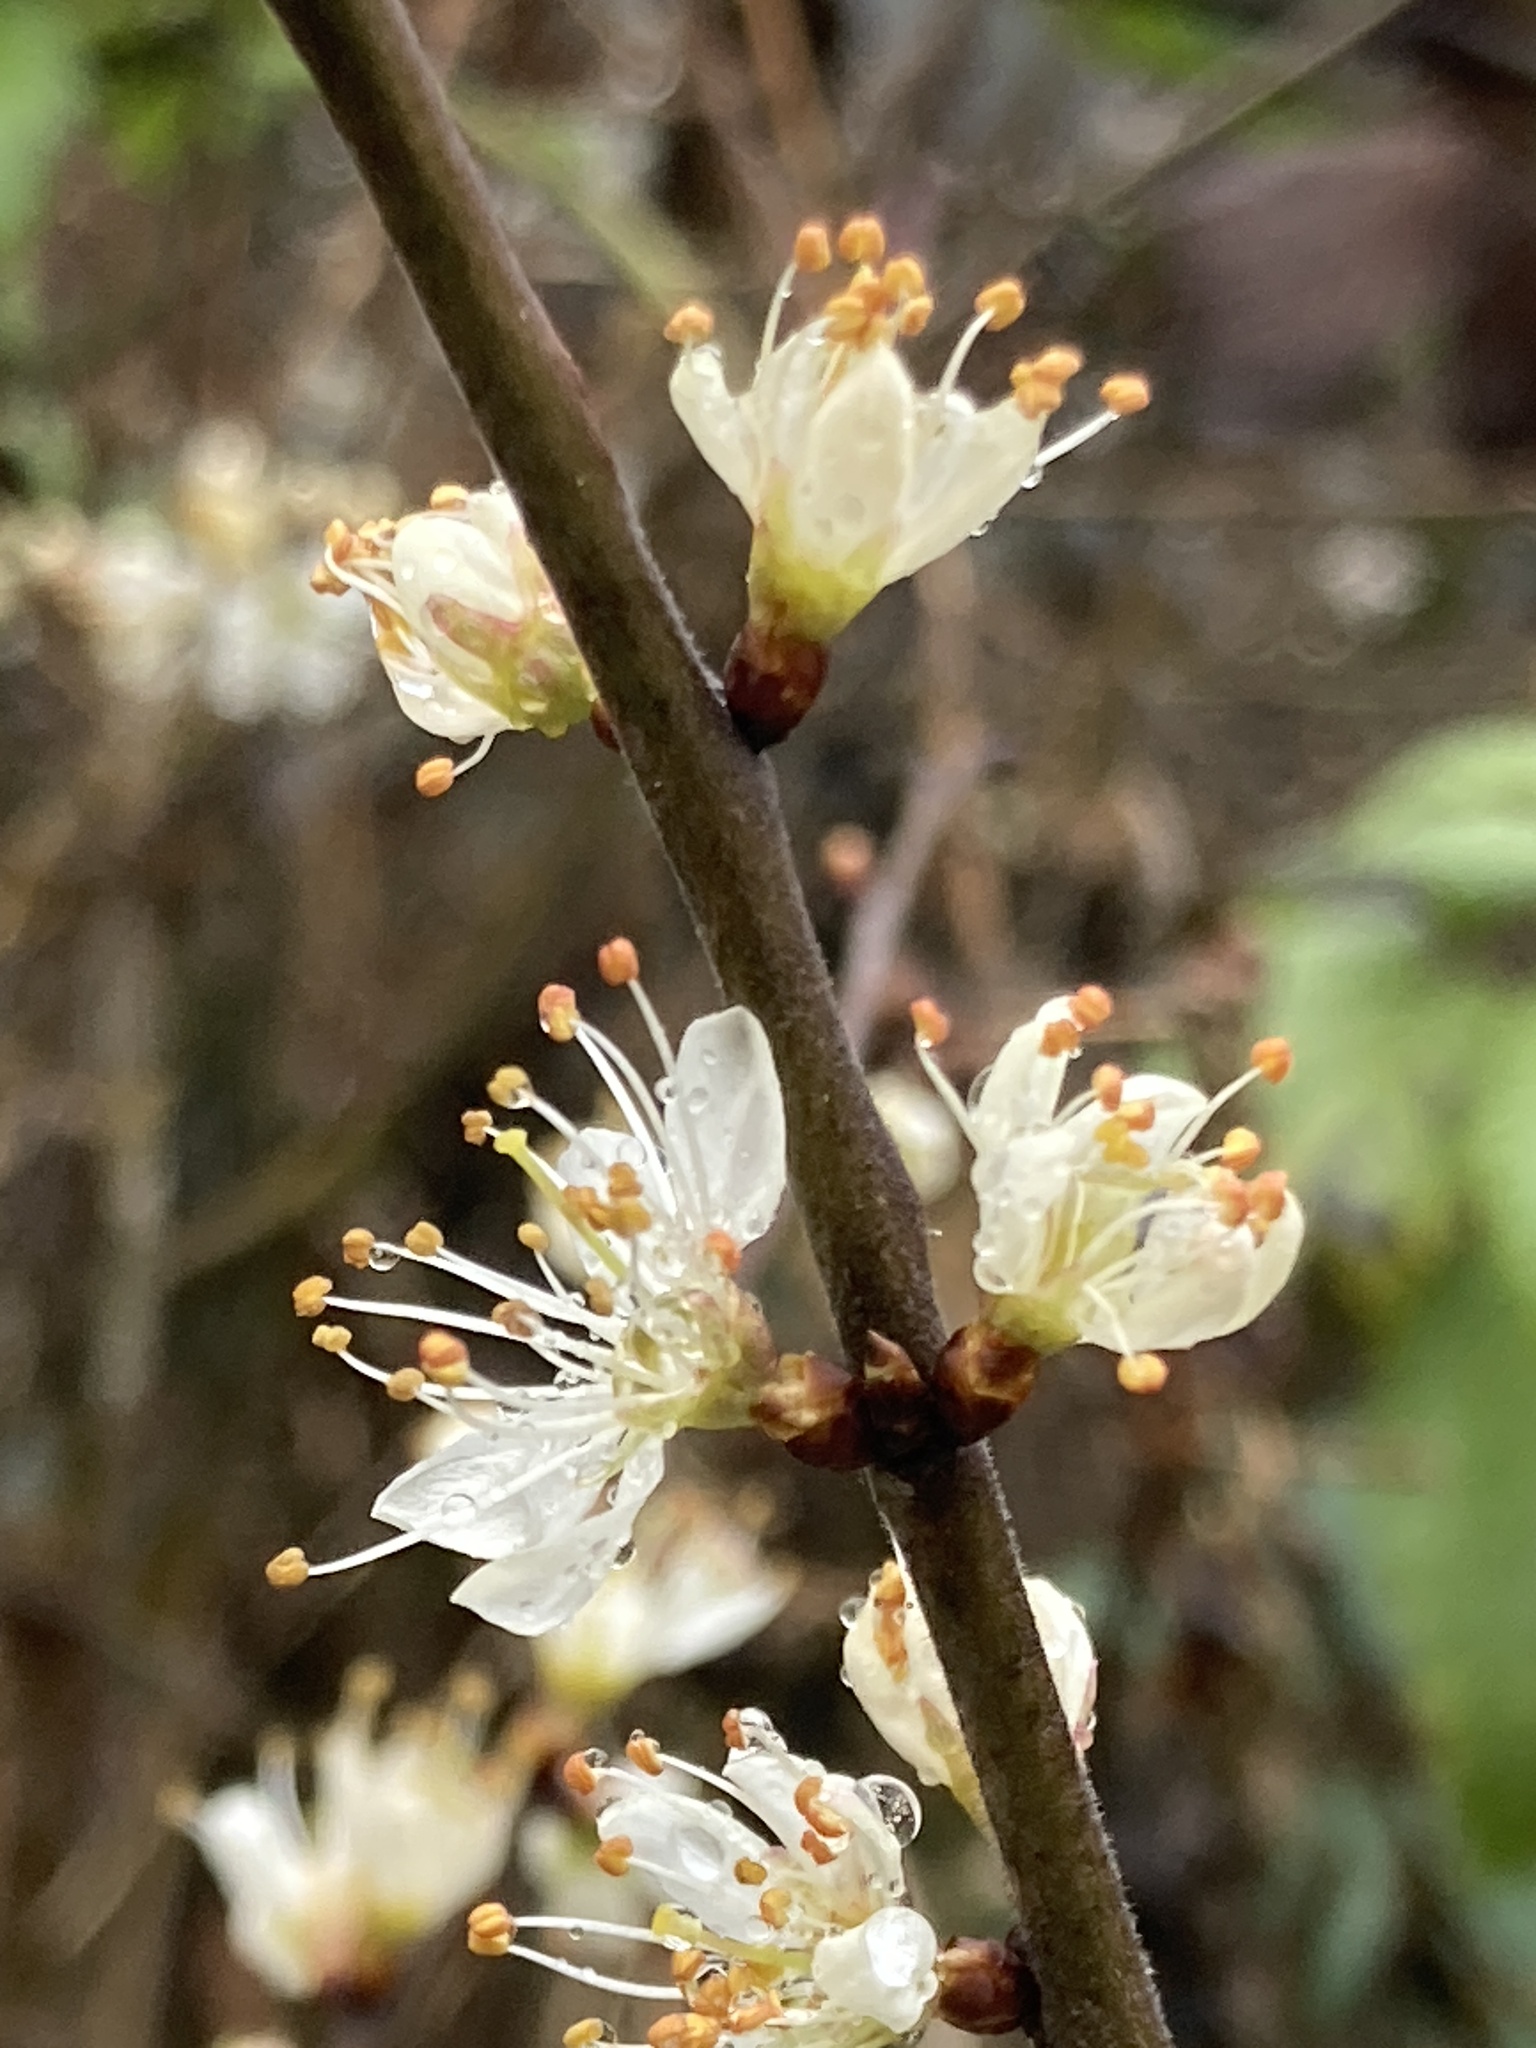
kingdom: Plantae
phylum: Tracheophyta
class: Magnoliopsida
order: Rosales
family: Rosaceae
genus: Prunus
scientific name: Prunus spinosa
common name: Blackthorn
